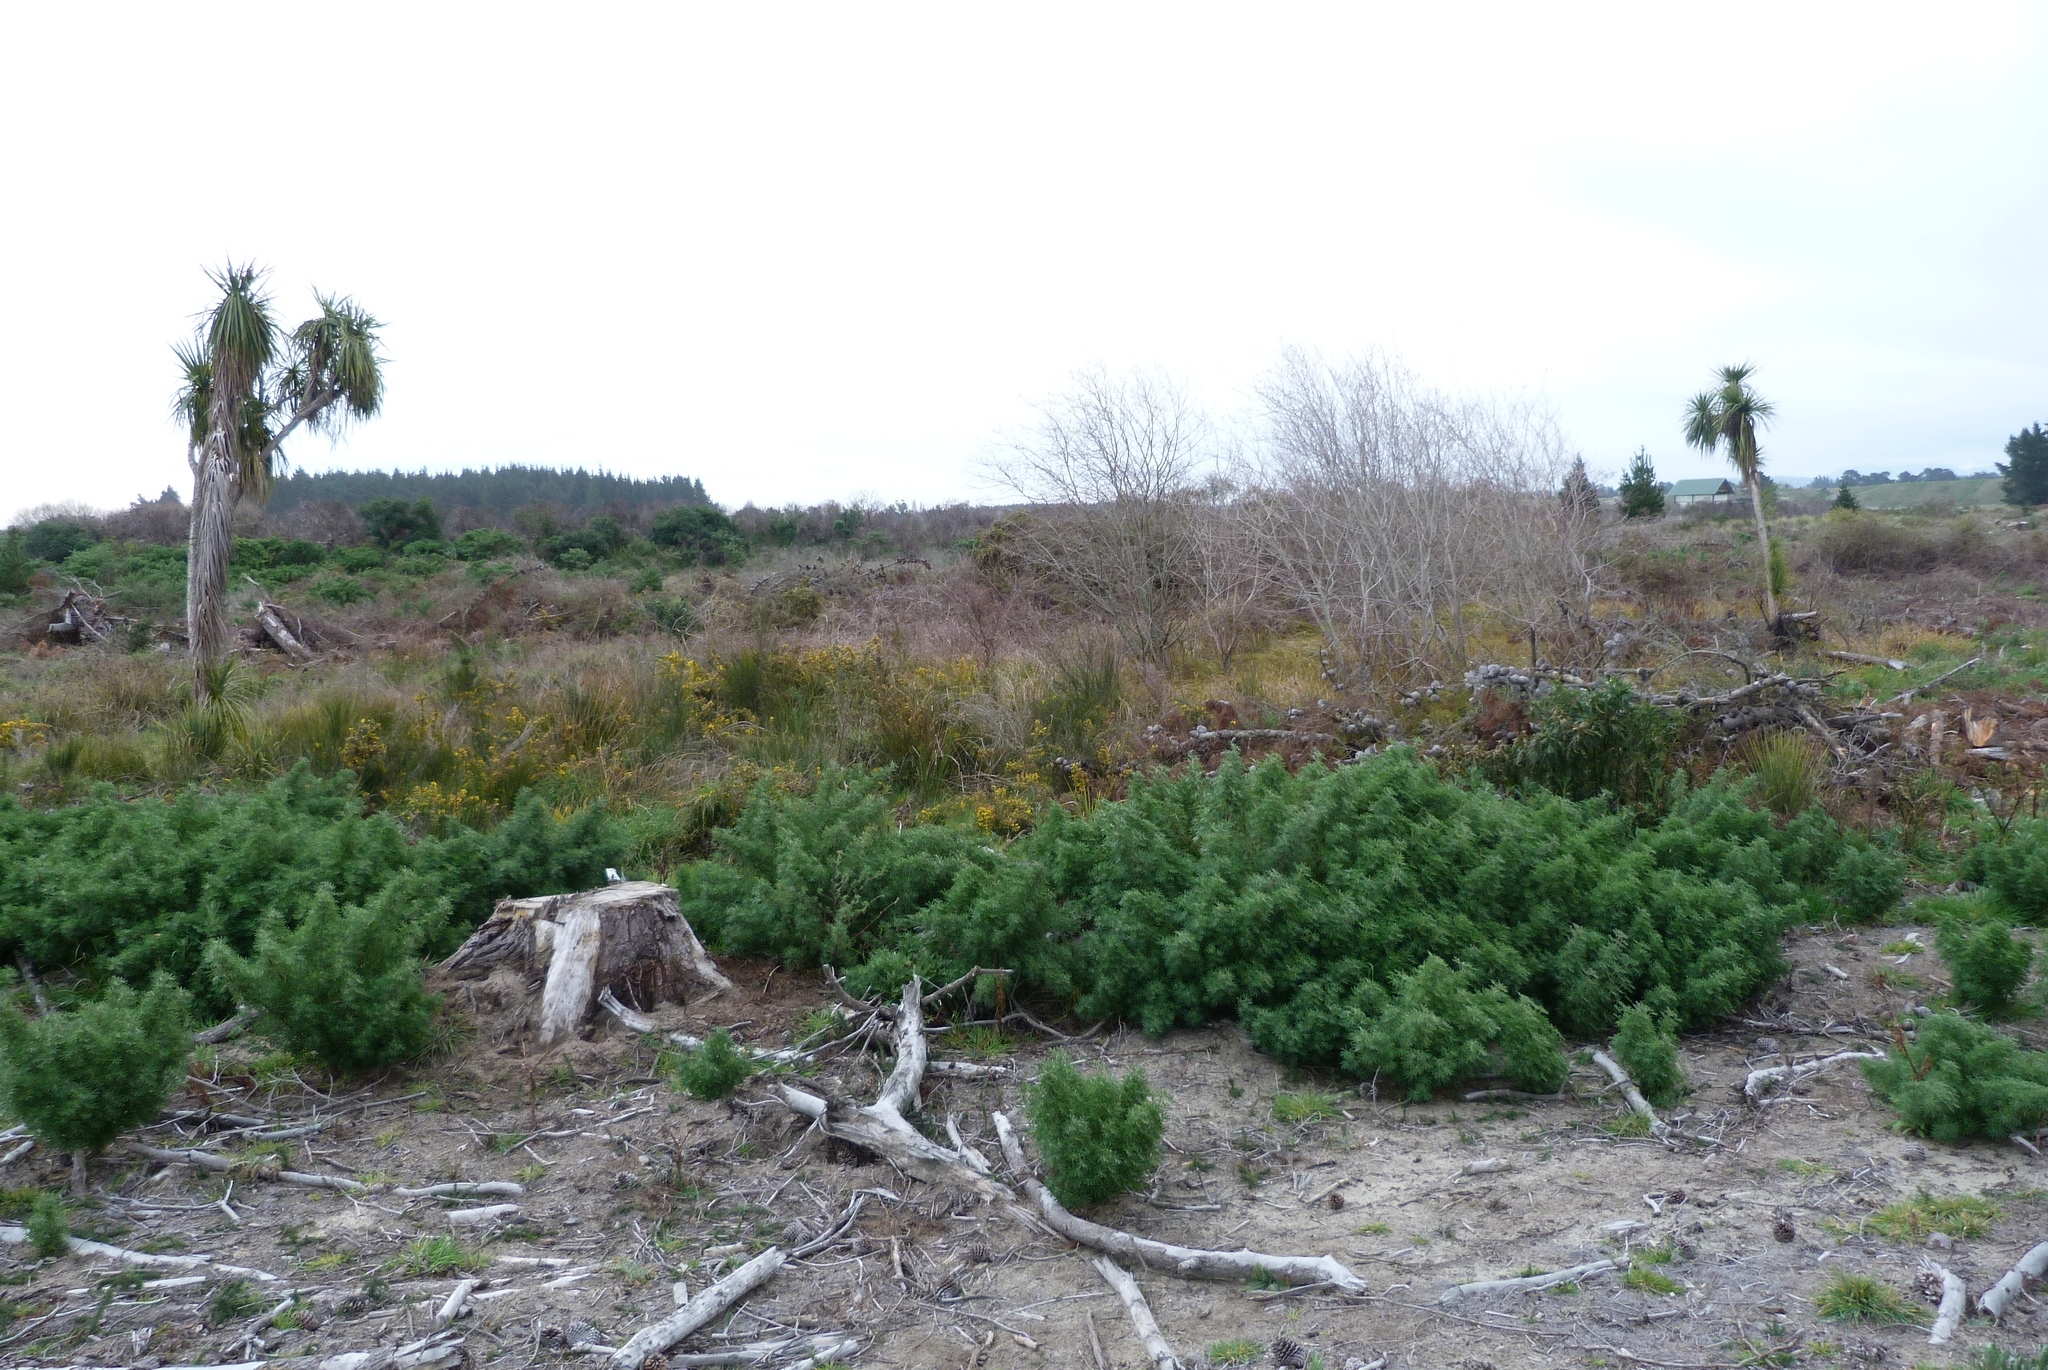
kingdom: Plantae
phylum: Tracheophyta
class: Magnoliopsida
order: Fabales
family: Fabaceae
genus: Ulex
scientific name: Ulex europaeus
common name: Common gorse
